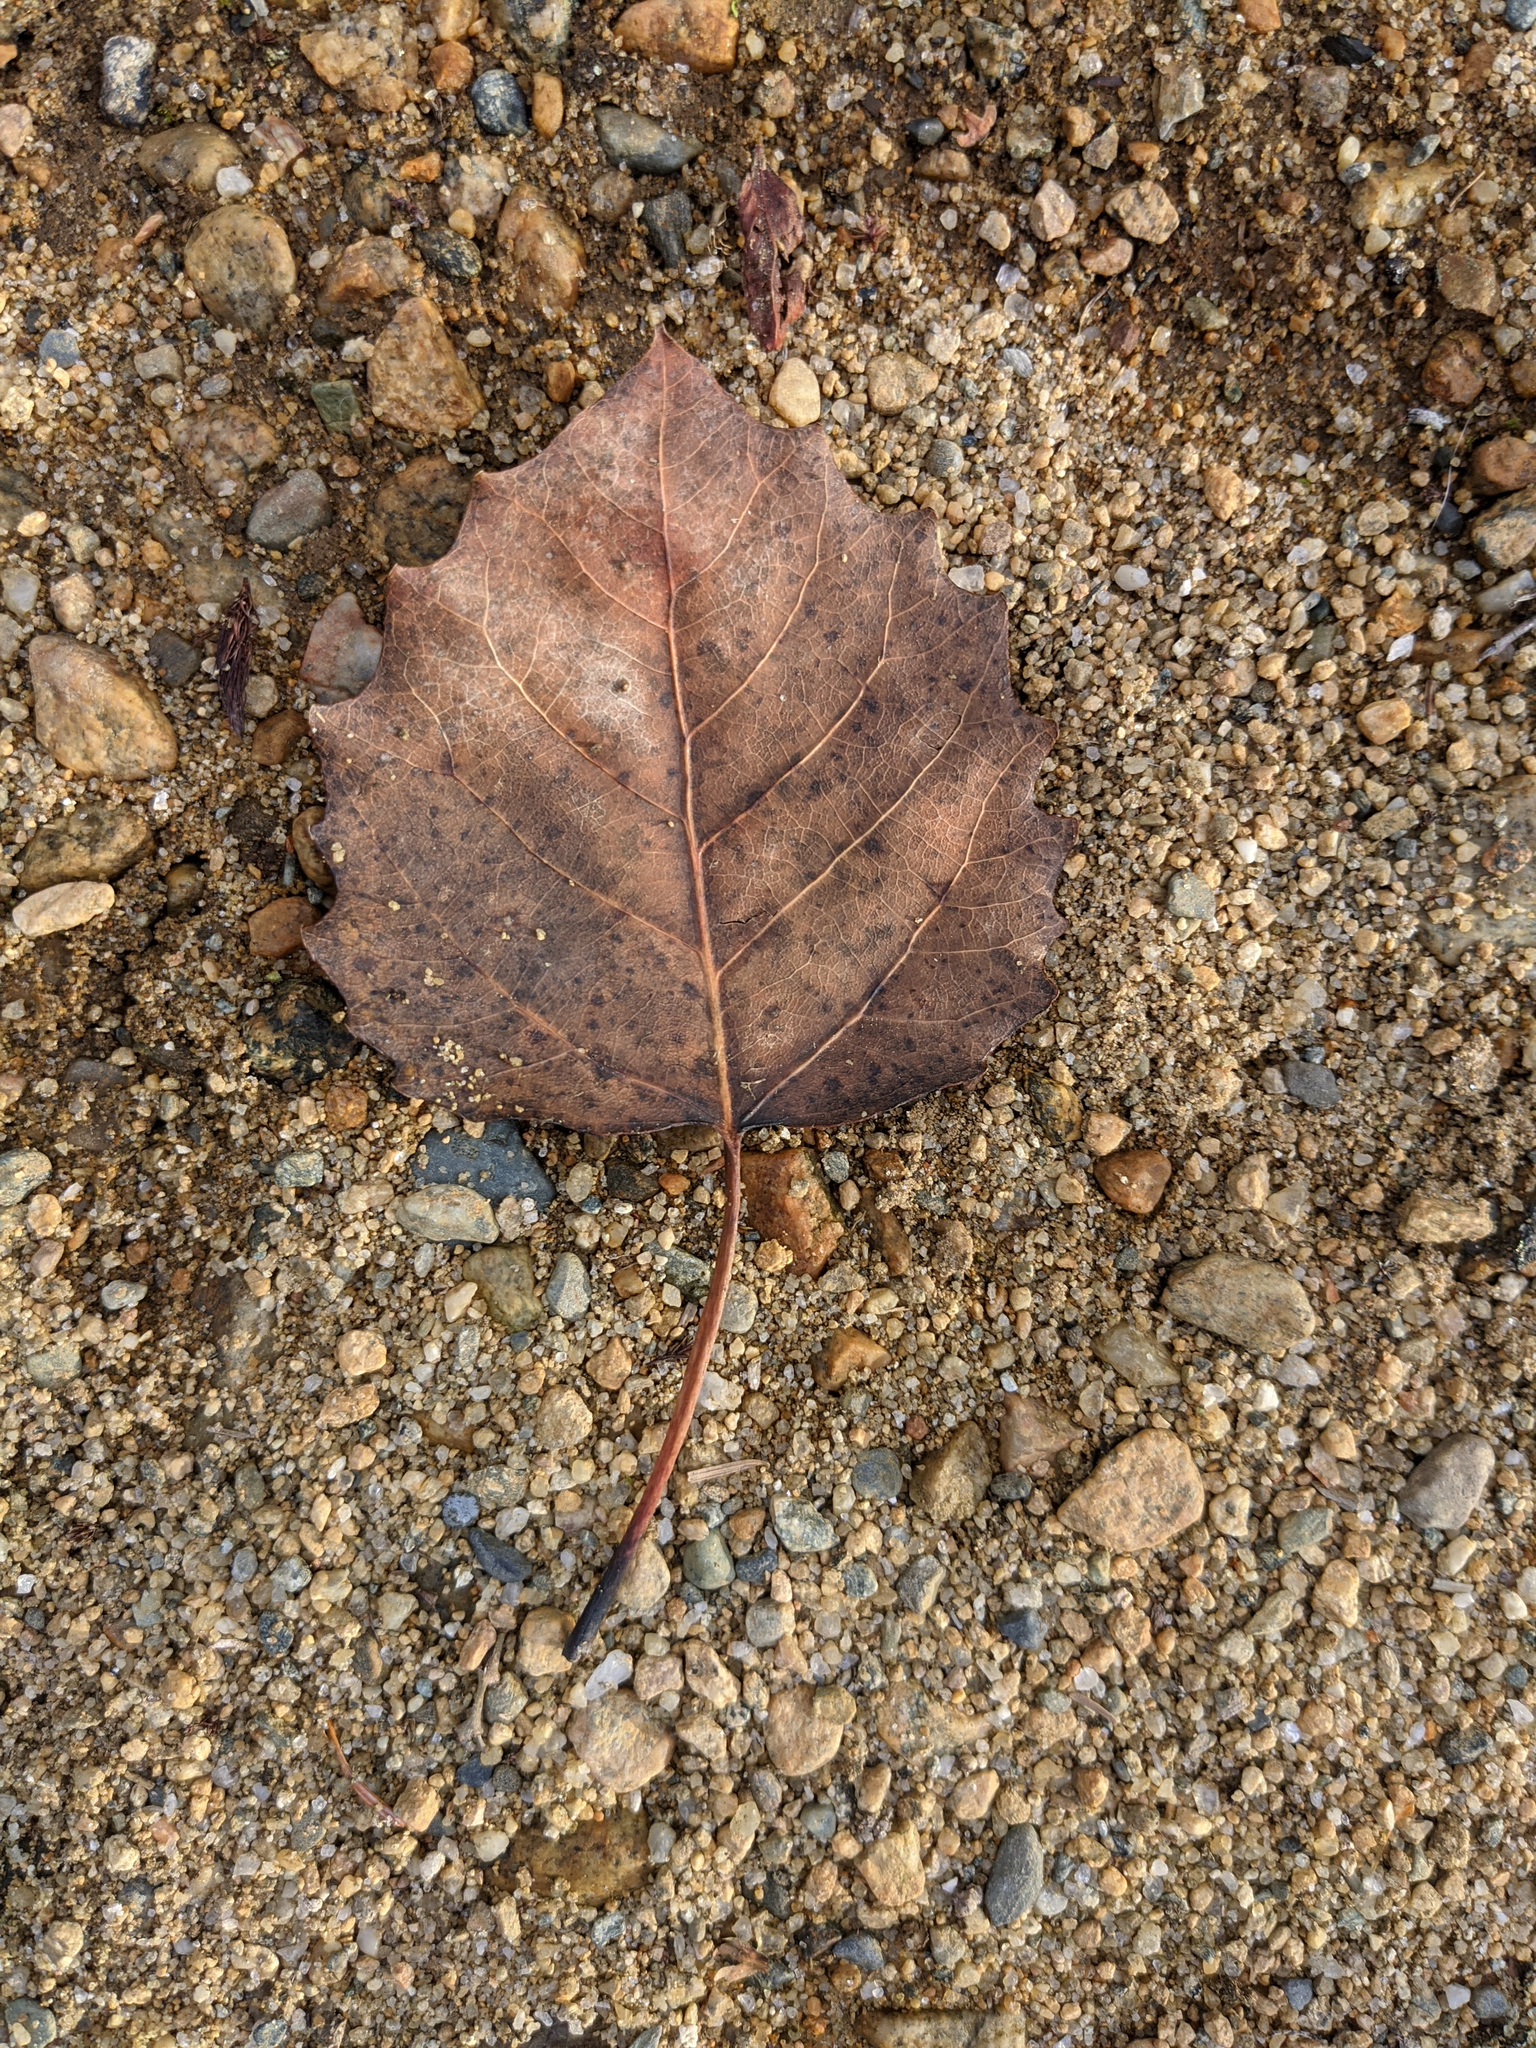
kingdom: Plantae
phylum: Tracheophyta
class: Magnoliopsida
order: Malpighiales
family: Salicaceae
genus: Populus
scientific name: Populus grandidentata
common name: Bigtooth aspen
